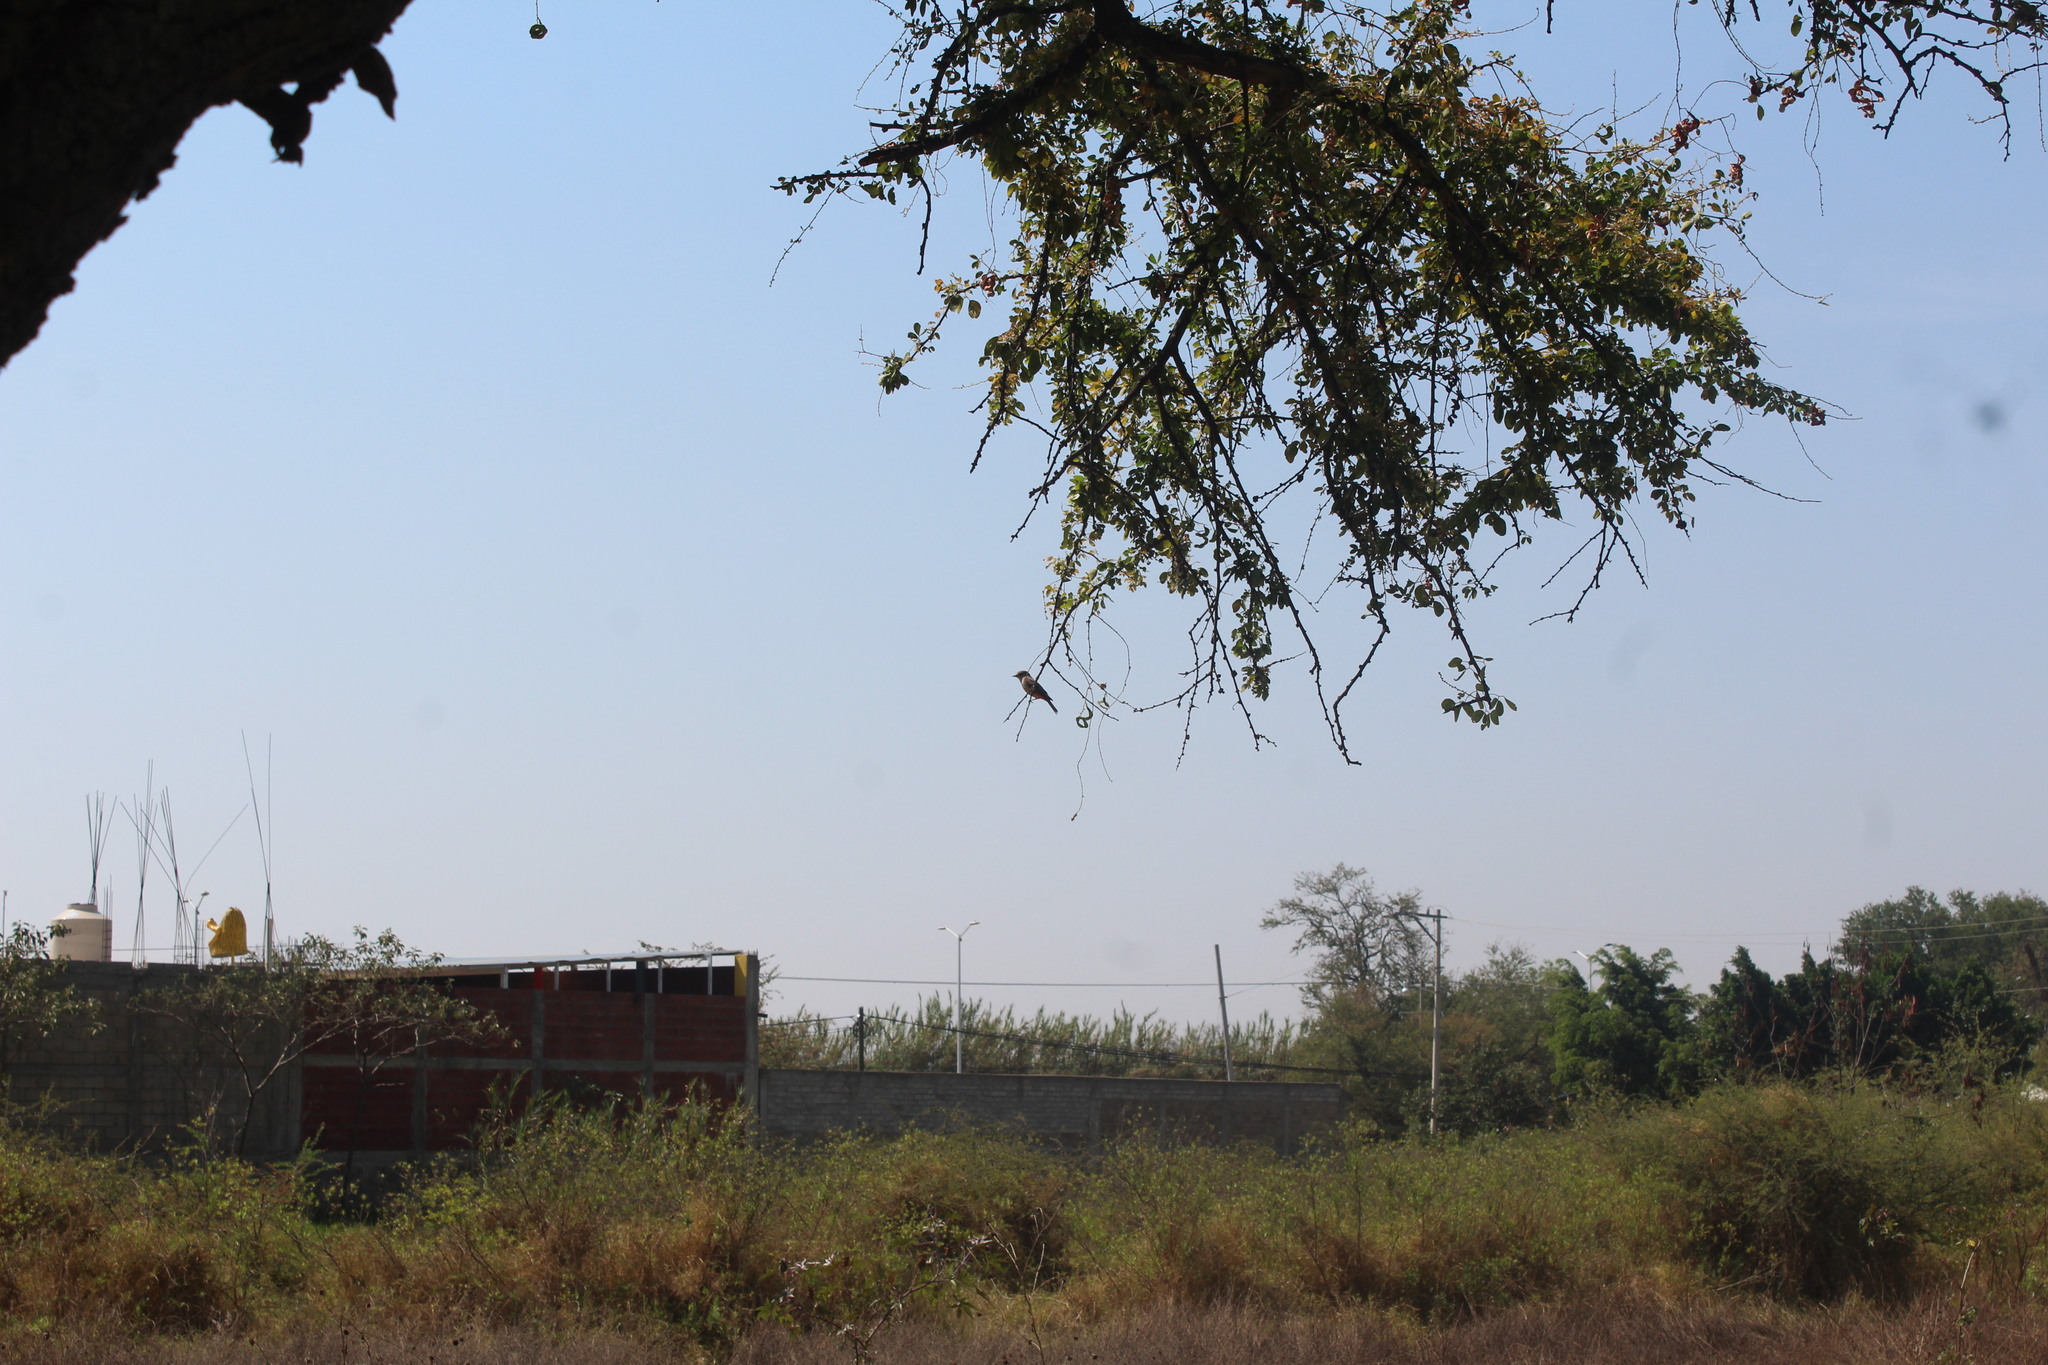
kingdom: Animalia
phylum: Chordata
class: Aves
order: Passeriformes
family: Tyrannidae
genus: Pyrocephalus
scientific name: Pyrocephalus rubinus
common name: Vermilion flycatcher
